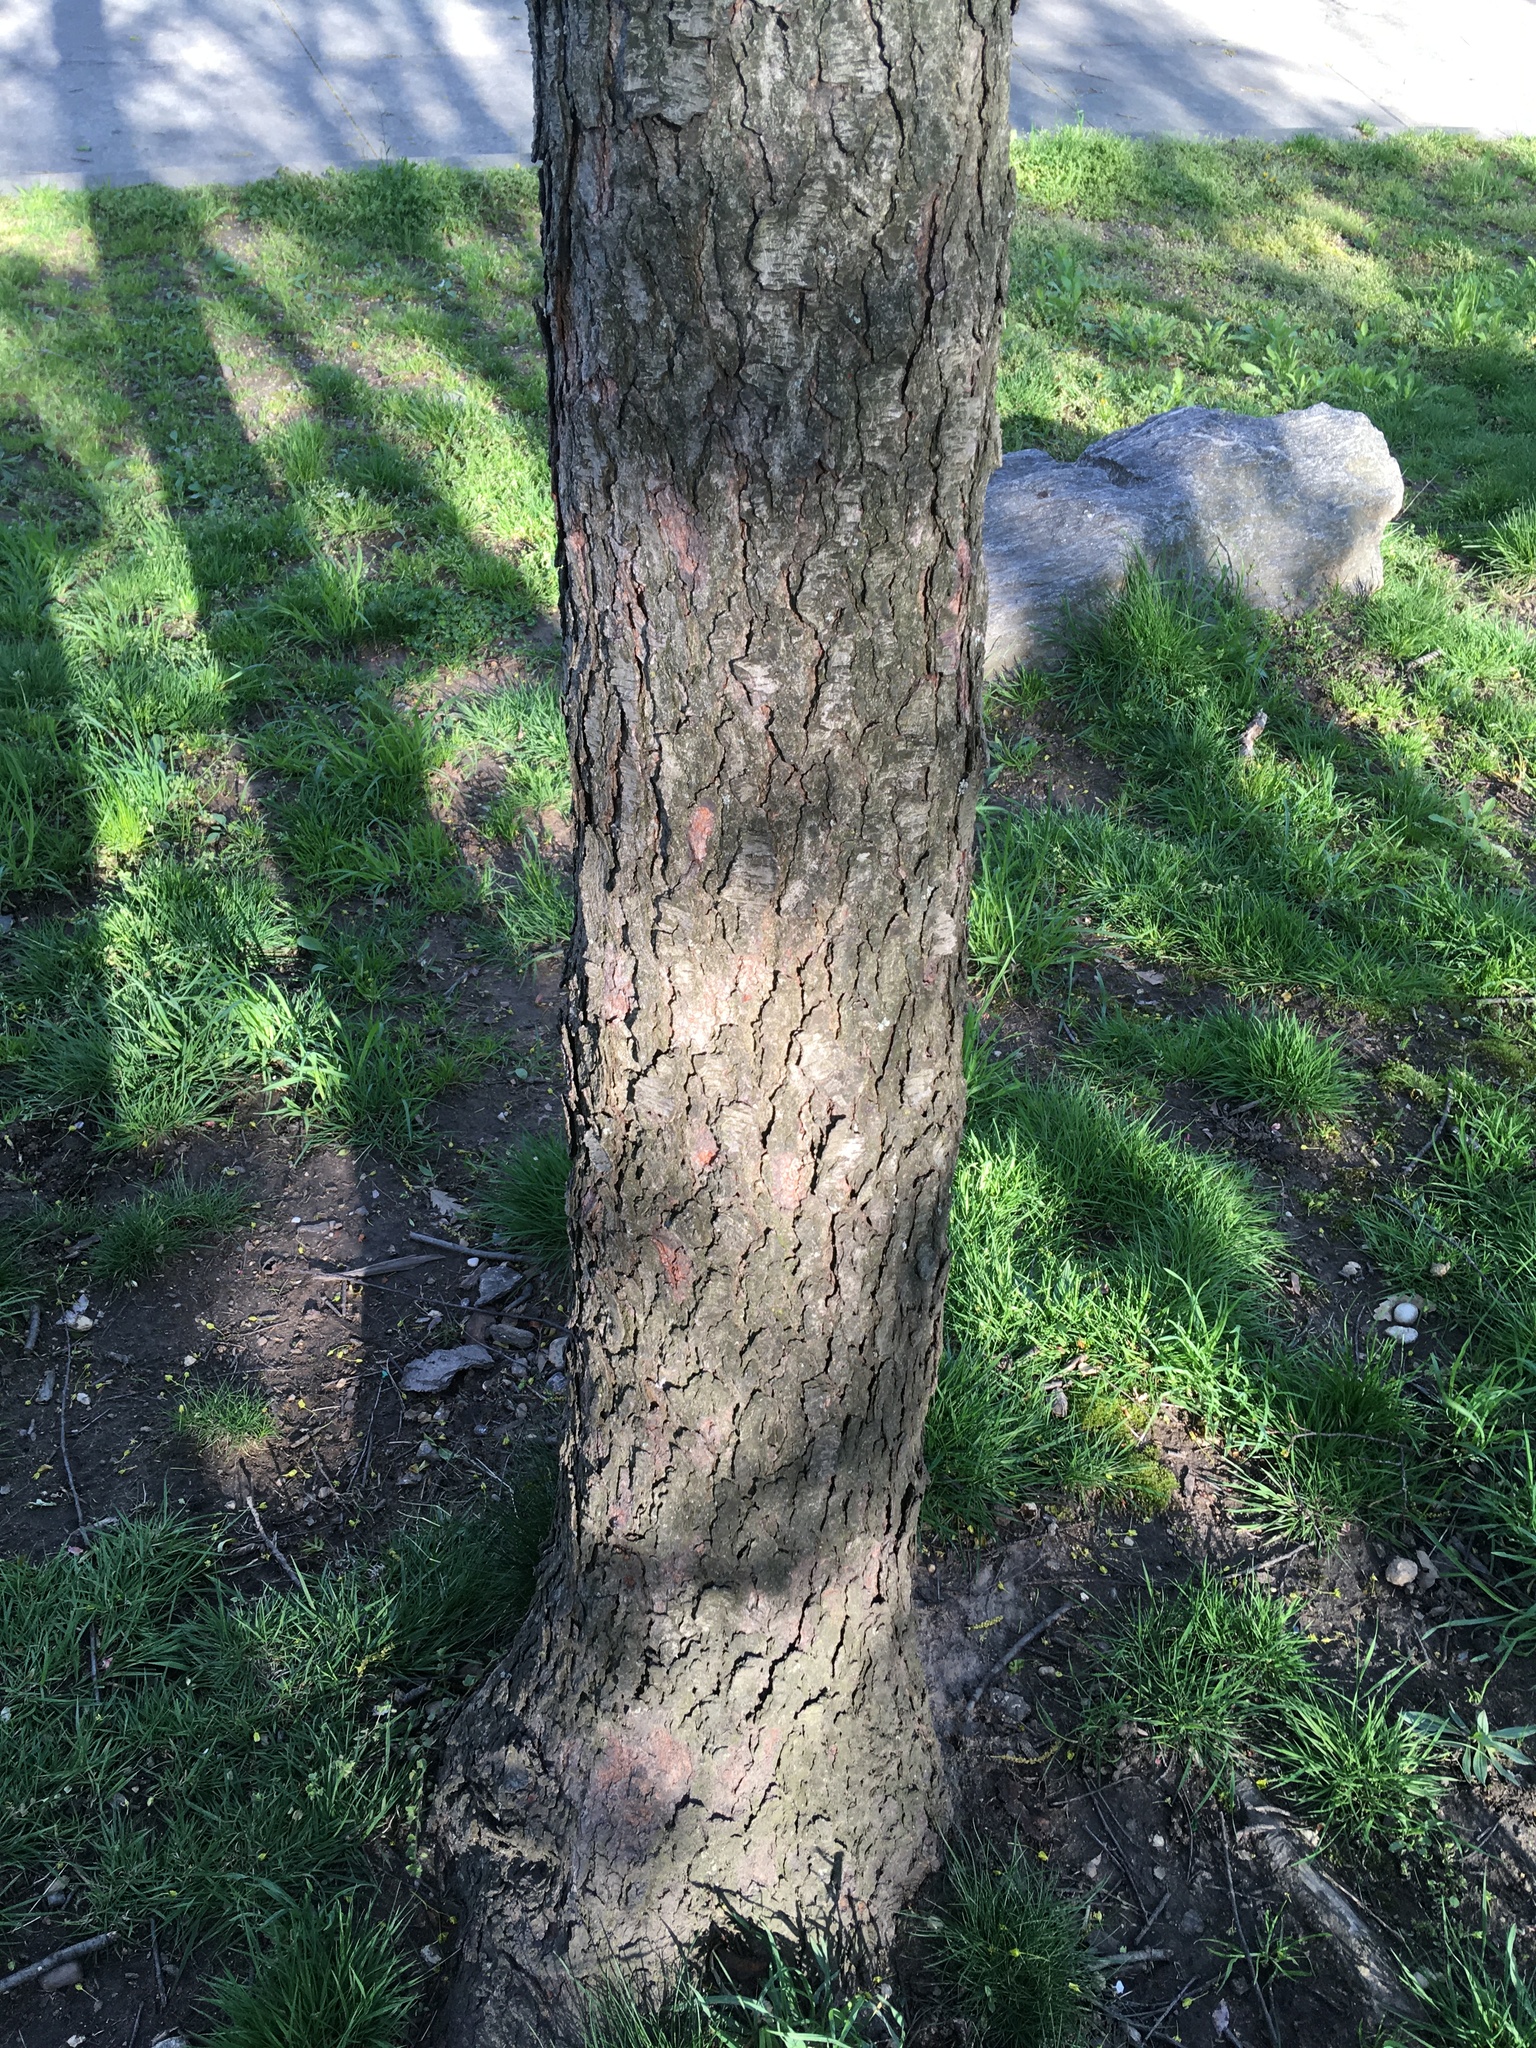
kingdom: Plantae
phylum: Tracheophyta
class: Magnoliopsida
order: Rosales
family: Rosaceae
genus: Prunus
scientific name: Prunus serotina
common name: Black cherry
